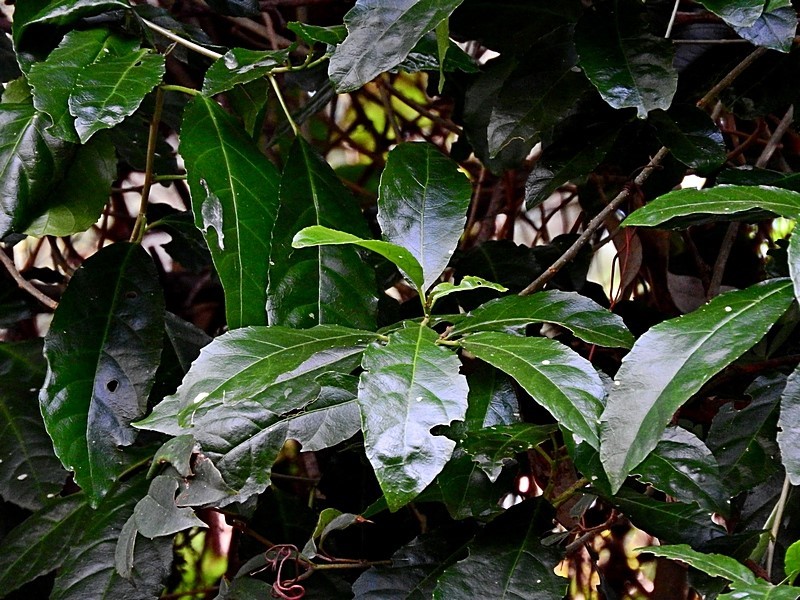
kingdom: Plantae
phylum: Tracheophyta
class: Magnoliopsida
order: Malpighiales
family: Euphorbiaceae
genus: Claoxylon
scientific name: Claoxylon australe
